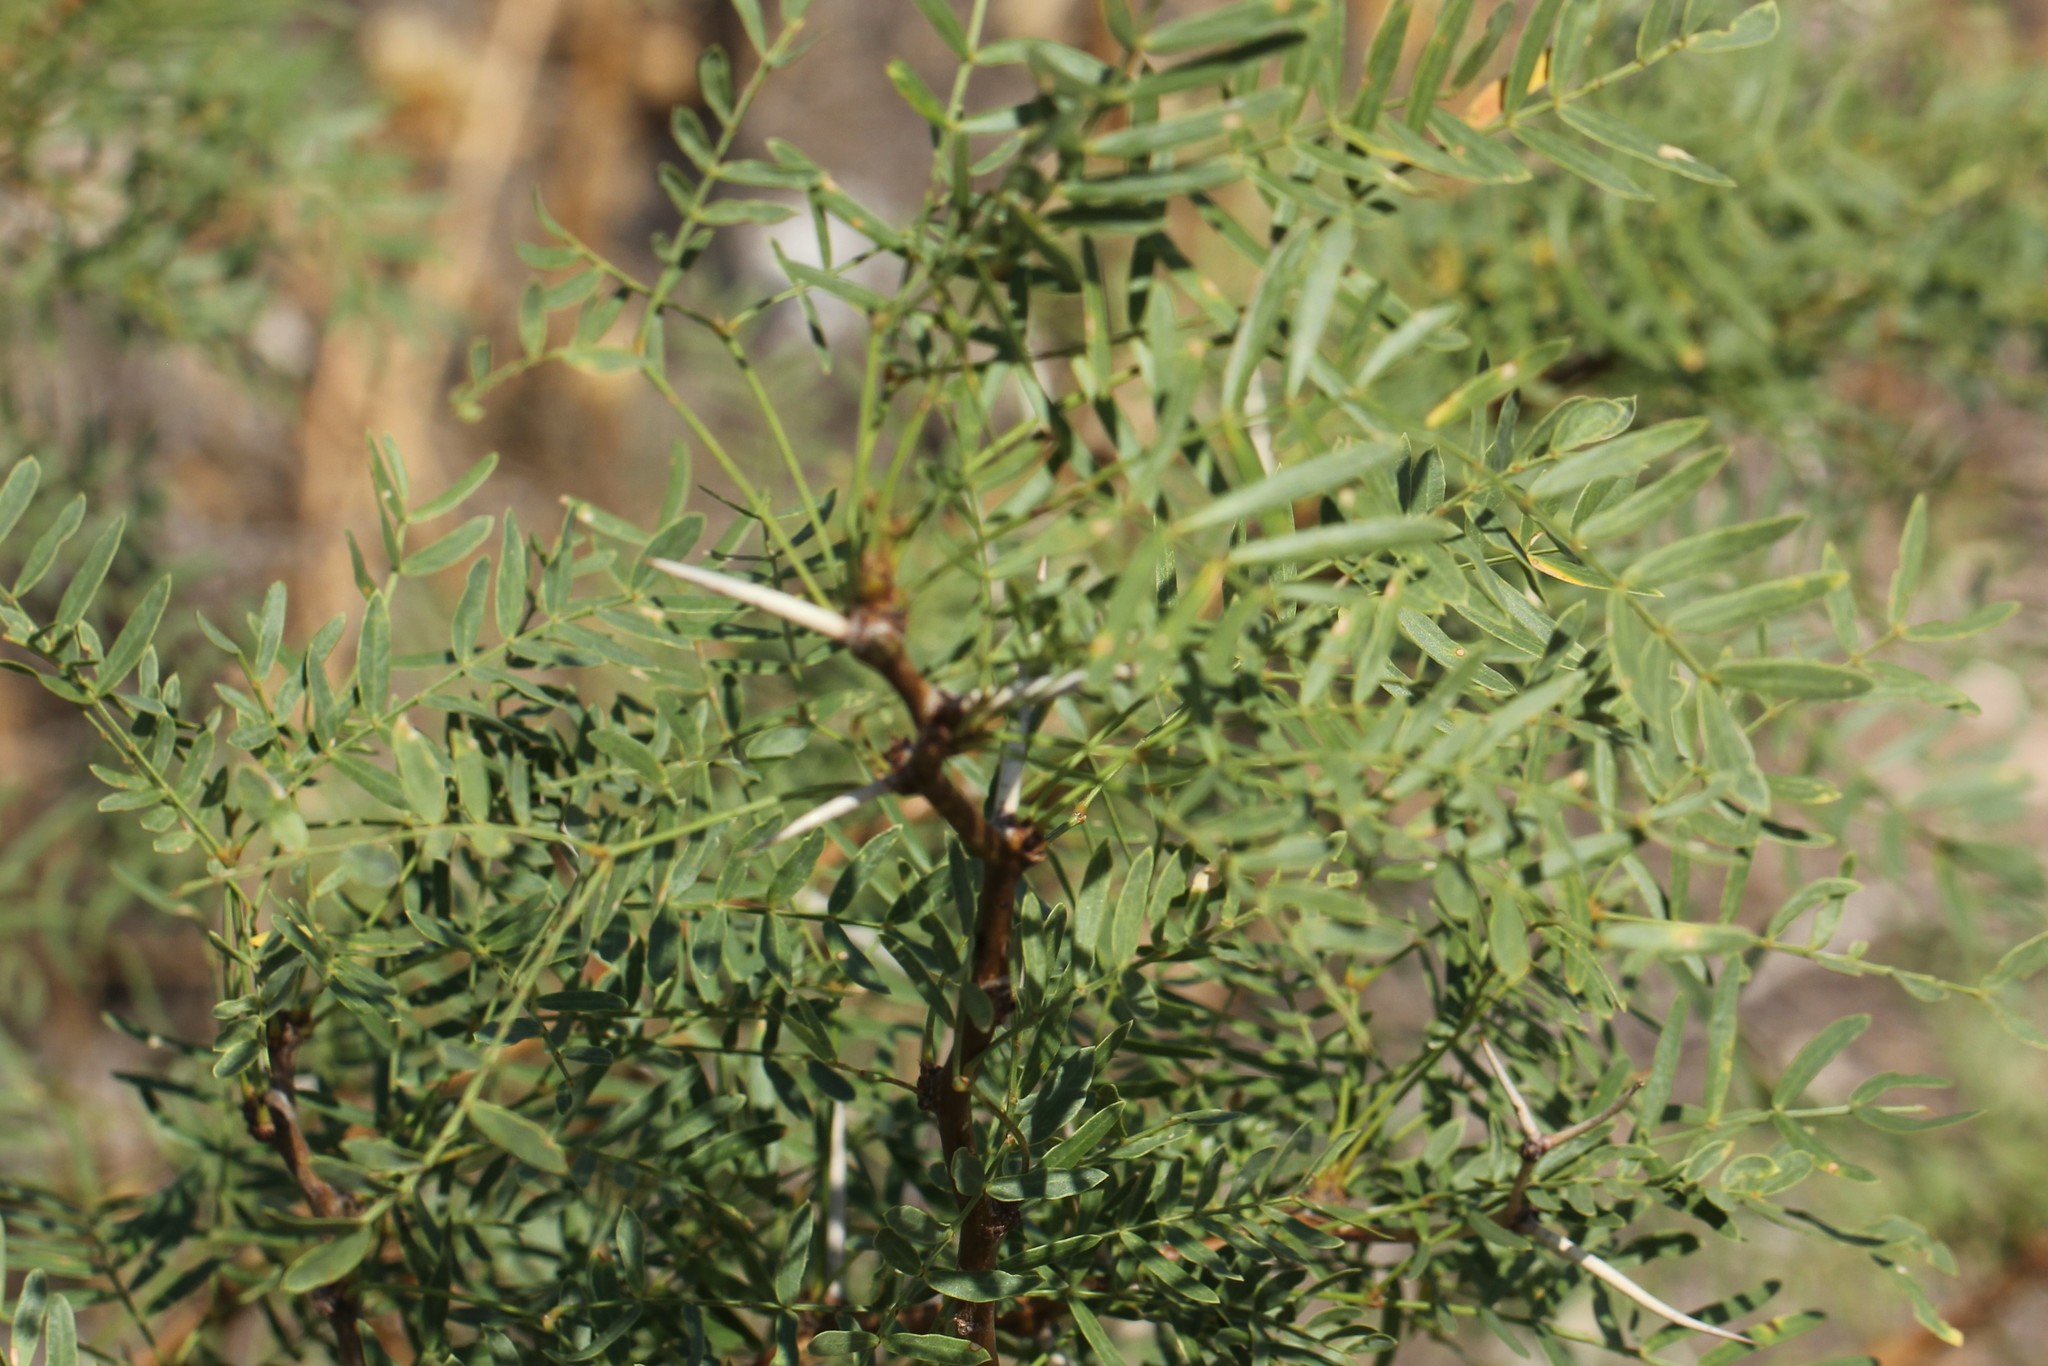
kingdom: Plantae
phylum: Tracheophyta
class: Magnoliopsida
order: Fabales
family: Fabaceae
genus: Prosopis
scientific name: Prosopis glandulosa
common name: Honey mesquite
